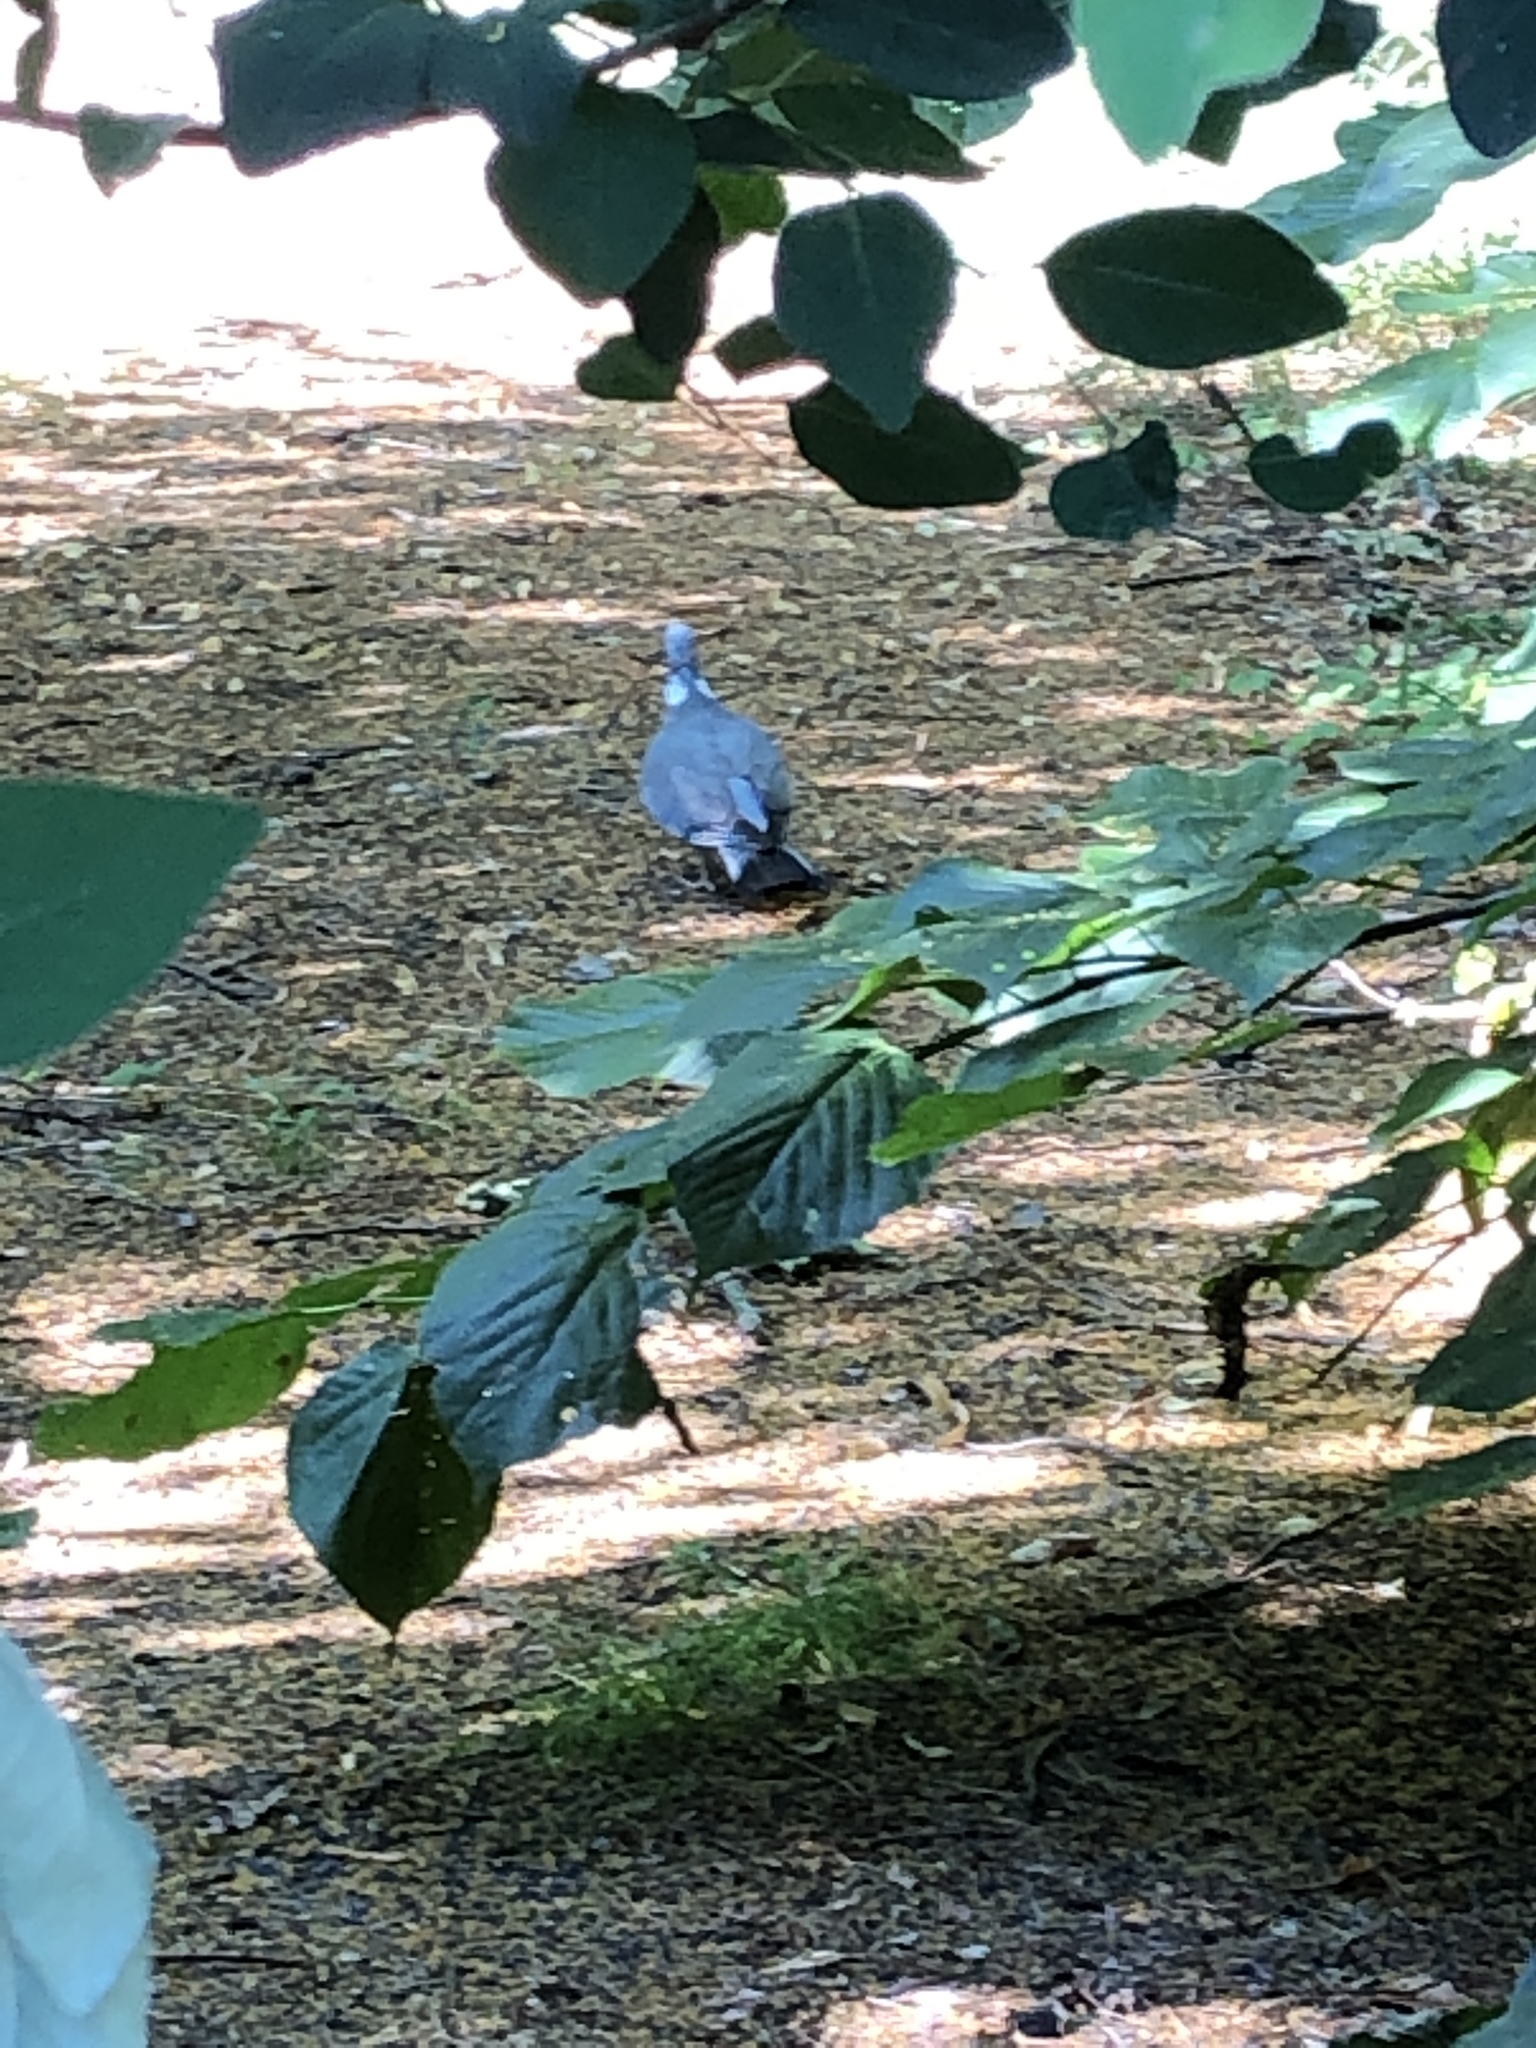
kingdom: Animalia
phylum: Chordata
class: Aves
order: Columbiformes
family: Columbidae
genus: Columba
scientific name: Columba palumbus
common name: Common wood pigeon
